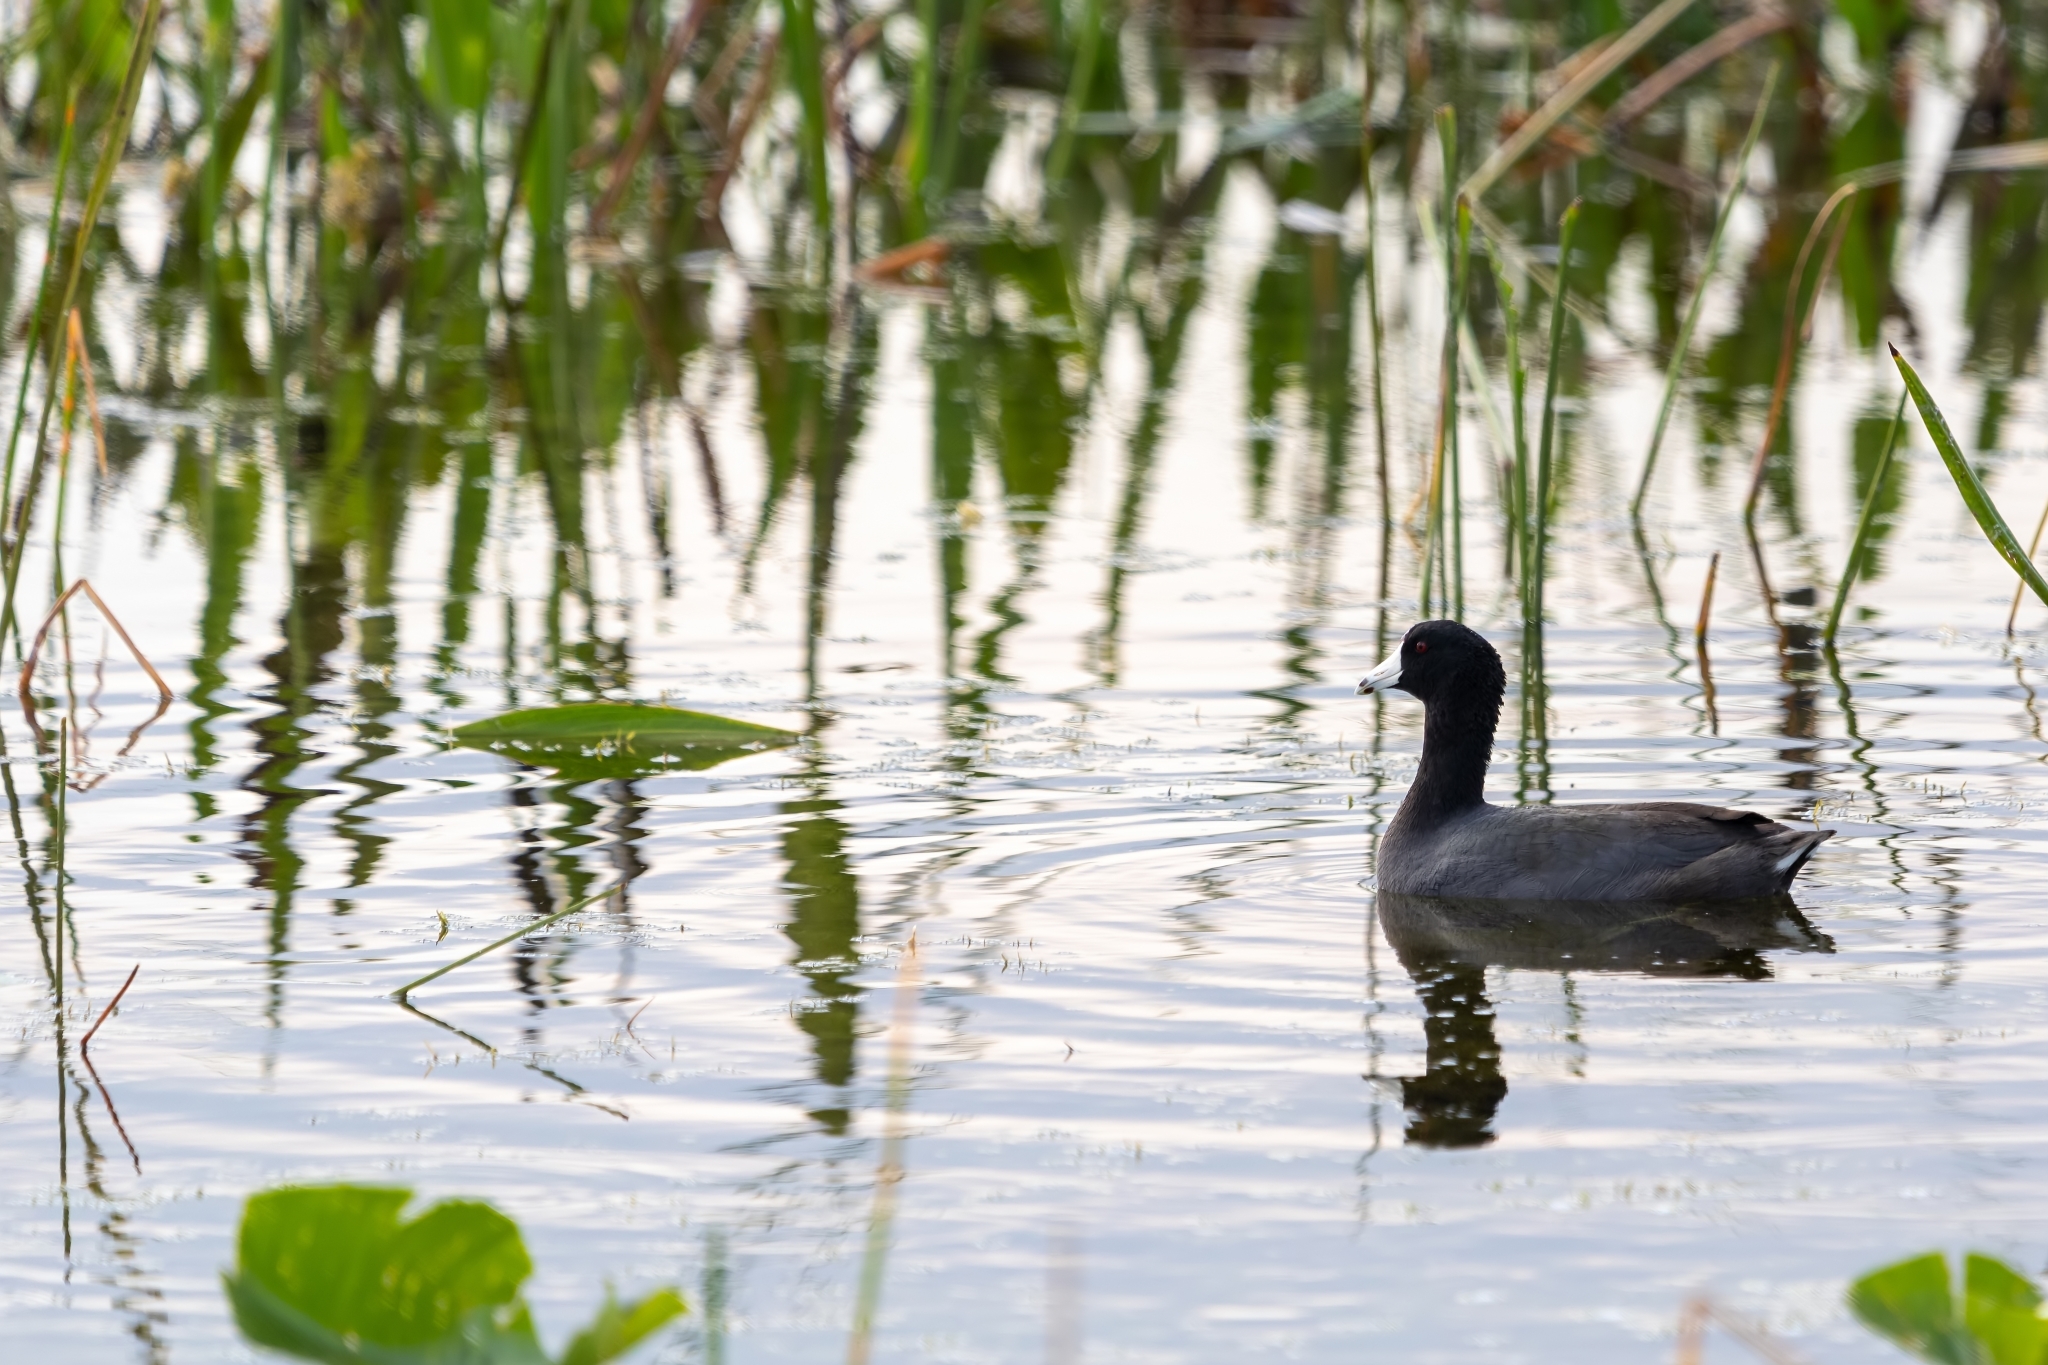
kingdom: Animalia
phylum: Chordata
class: Aves
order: Gruiformes
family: Rallidae
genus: Fulica
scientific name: Fulica americana
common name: American coot
